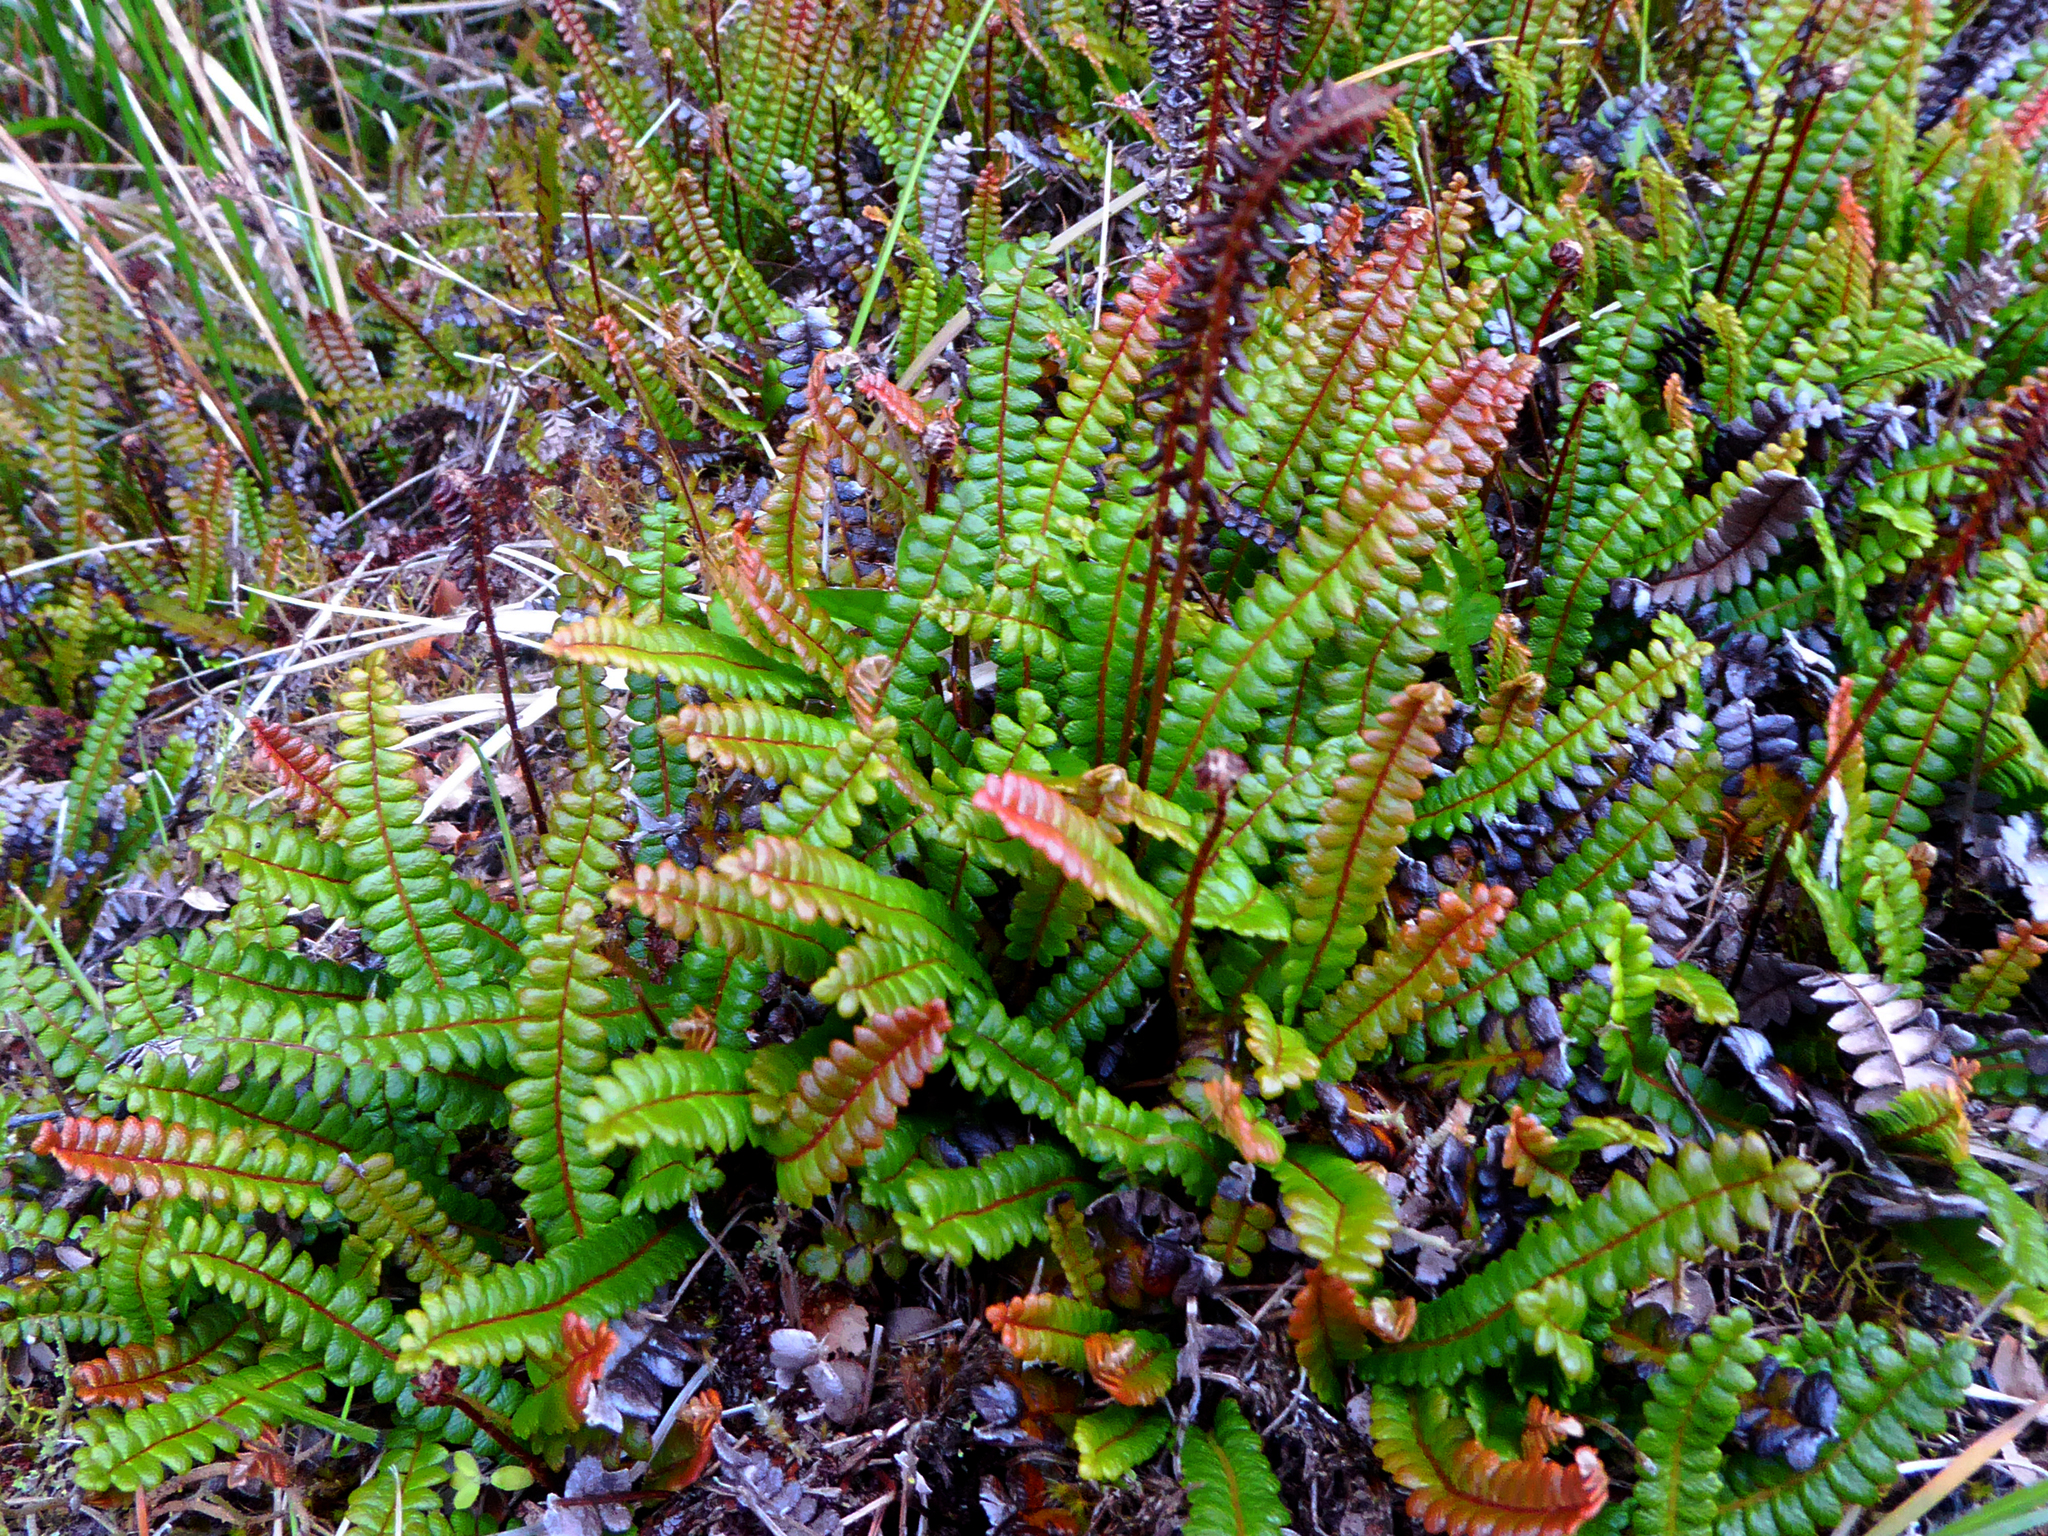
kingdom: Plantae
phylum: Tracheophyta
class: Polypodiopsida
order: Polypodiales
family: Blechnaceae
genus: Austroblechnum
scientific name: Austroblechnum penna-marina
